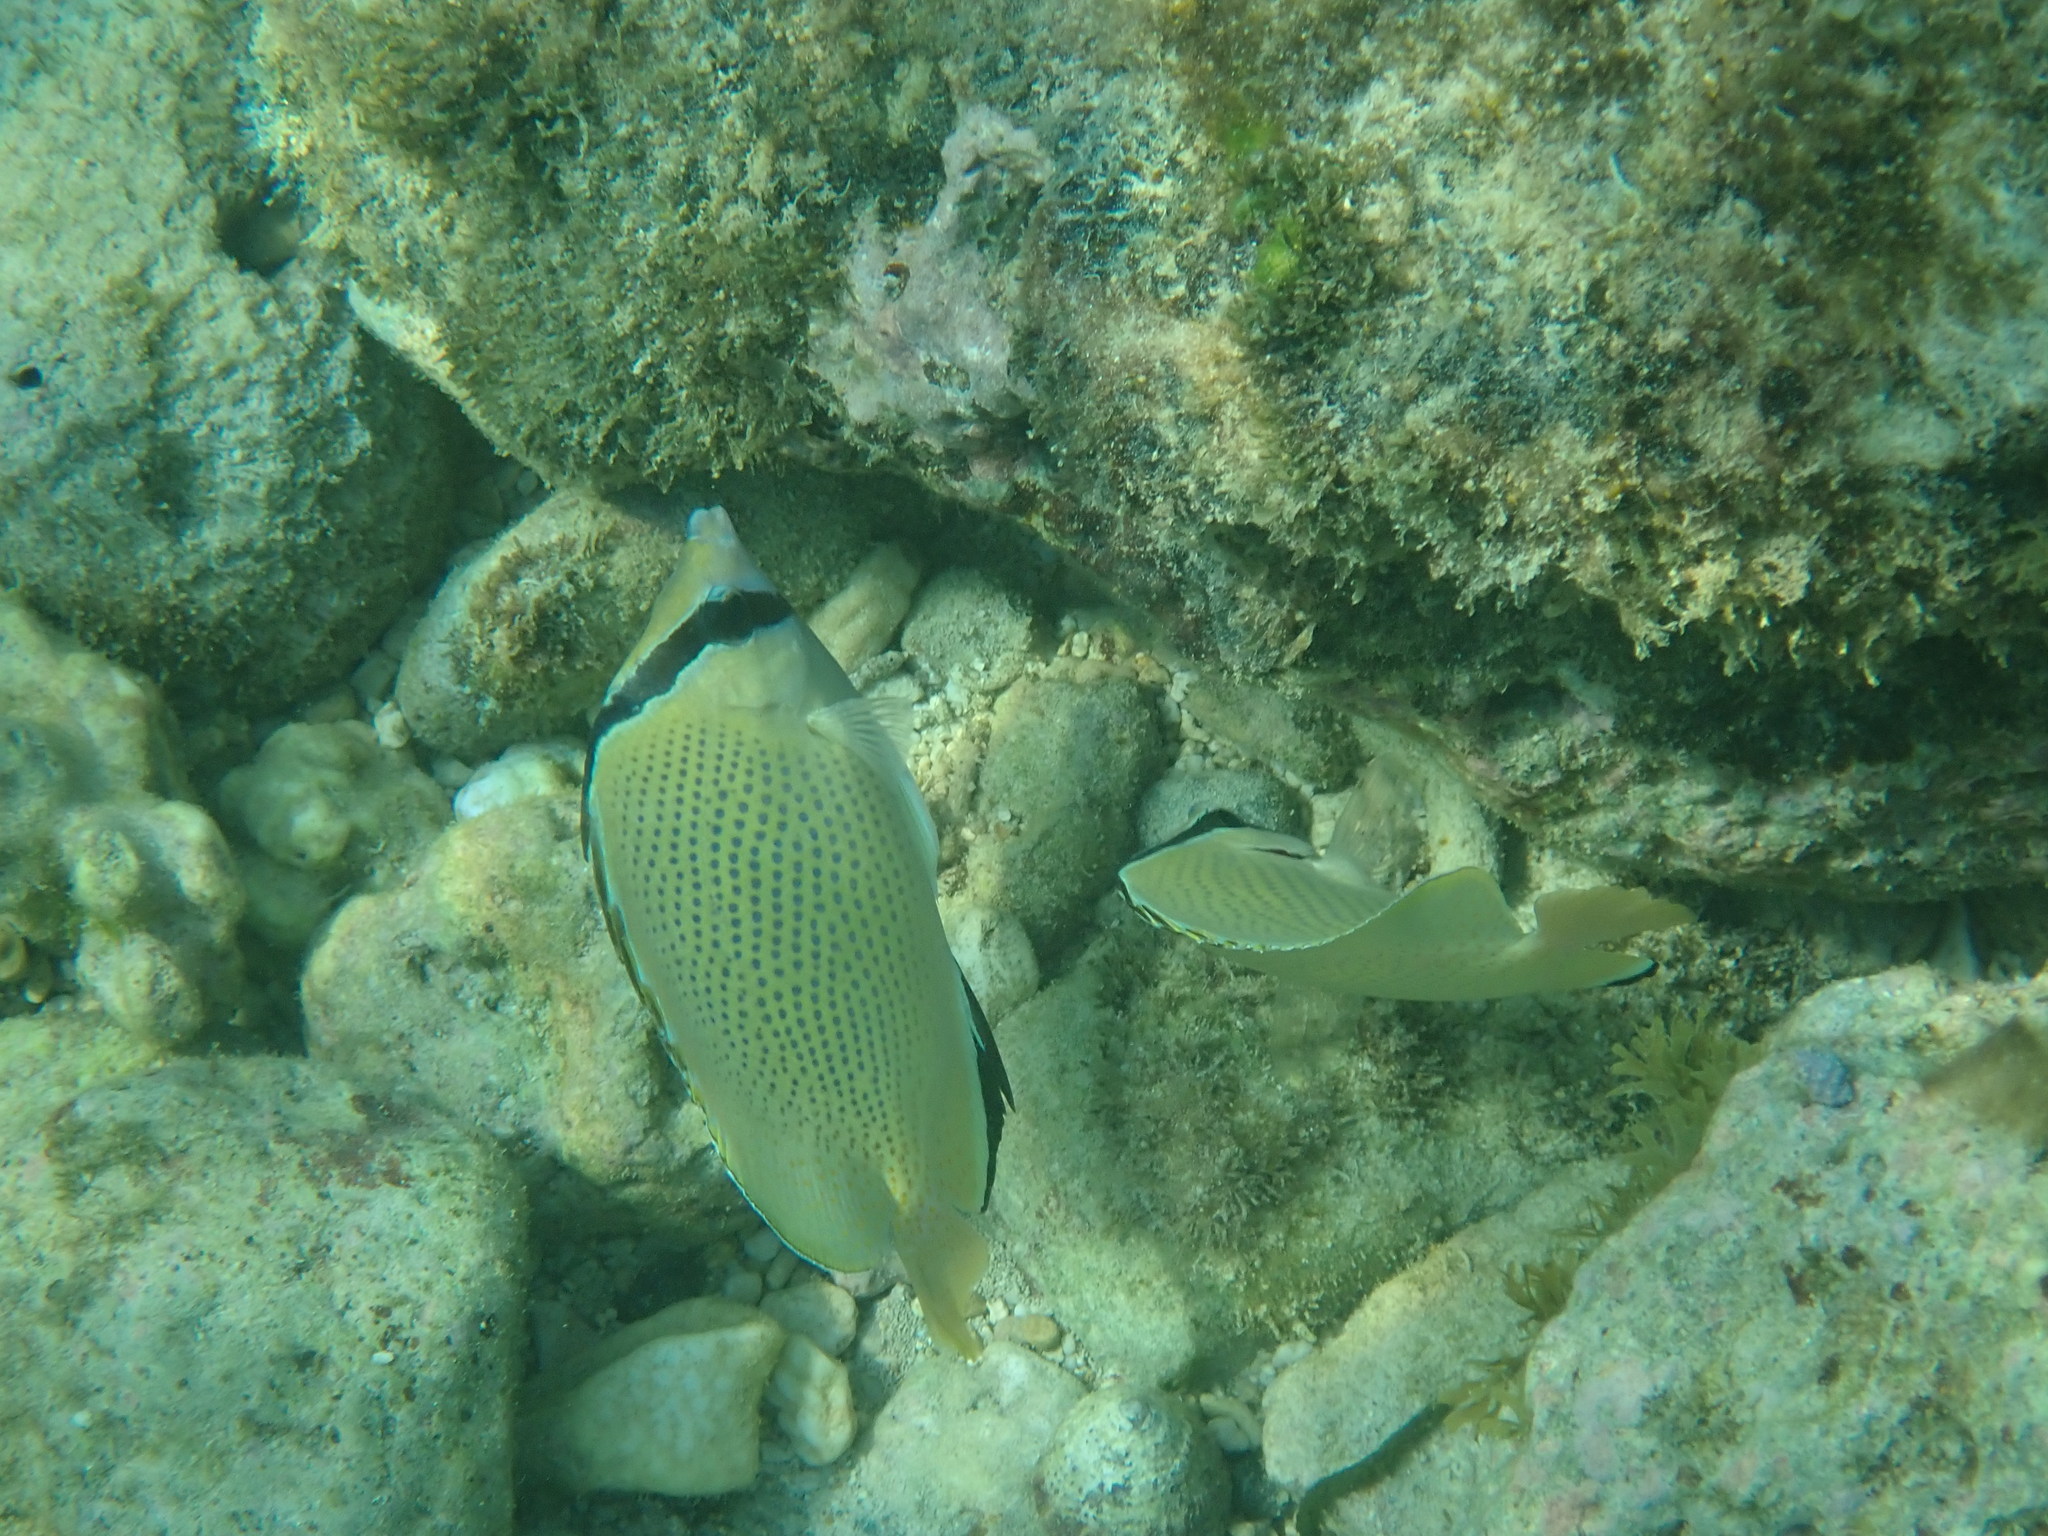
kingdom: Animalia
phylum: Chordata
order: Perciformes
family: Chaetodontidae
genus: Chaetodon
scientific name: Chaetodon citrinellus
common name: Speckled butterflyfish
